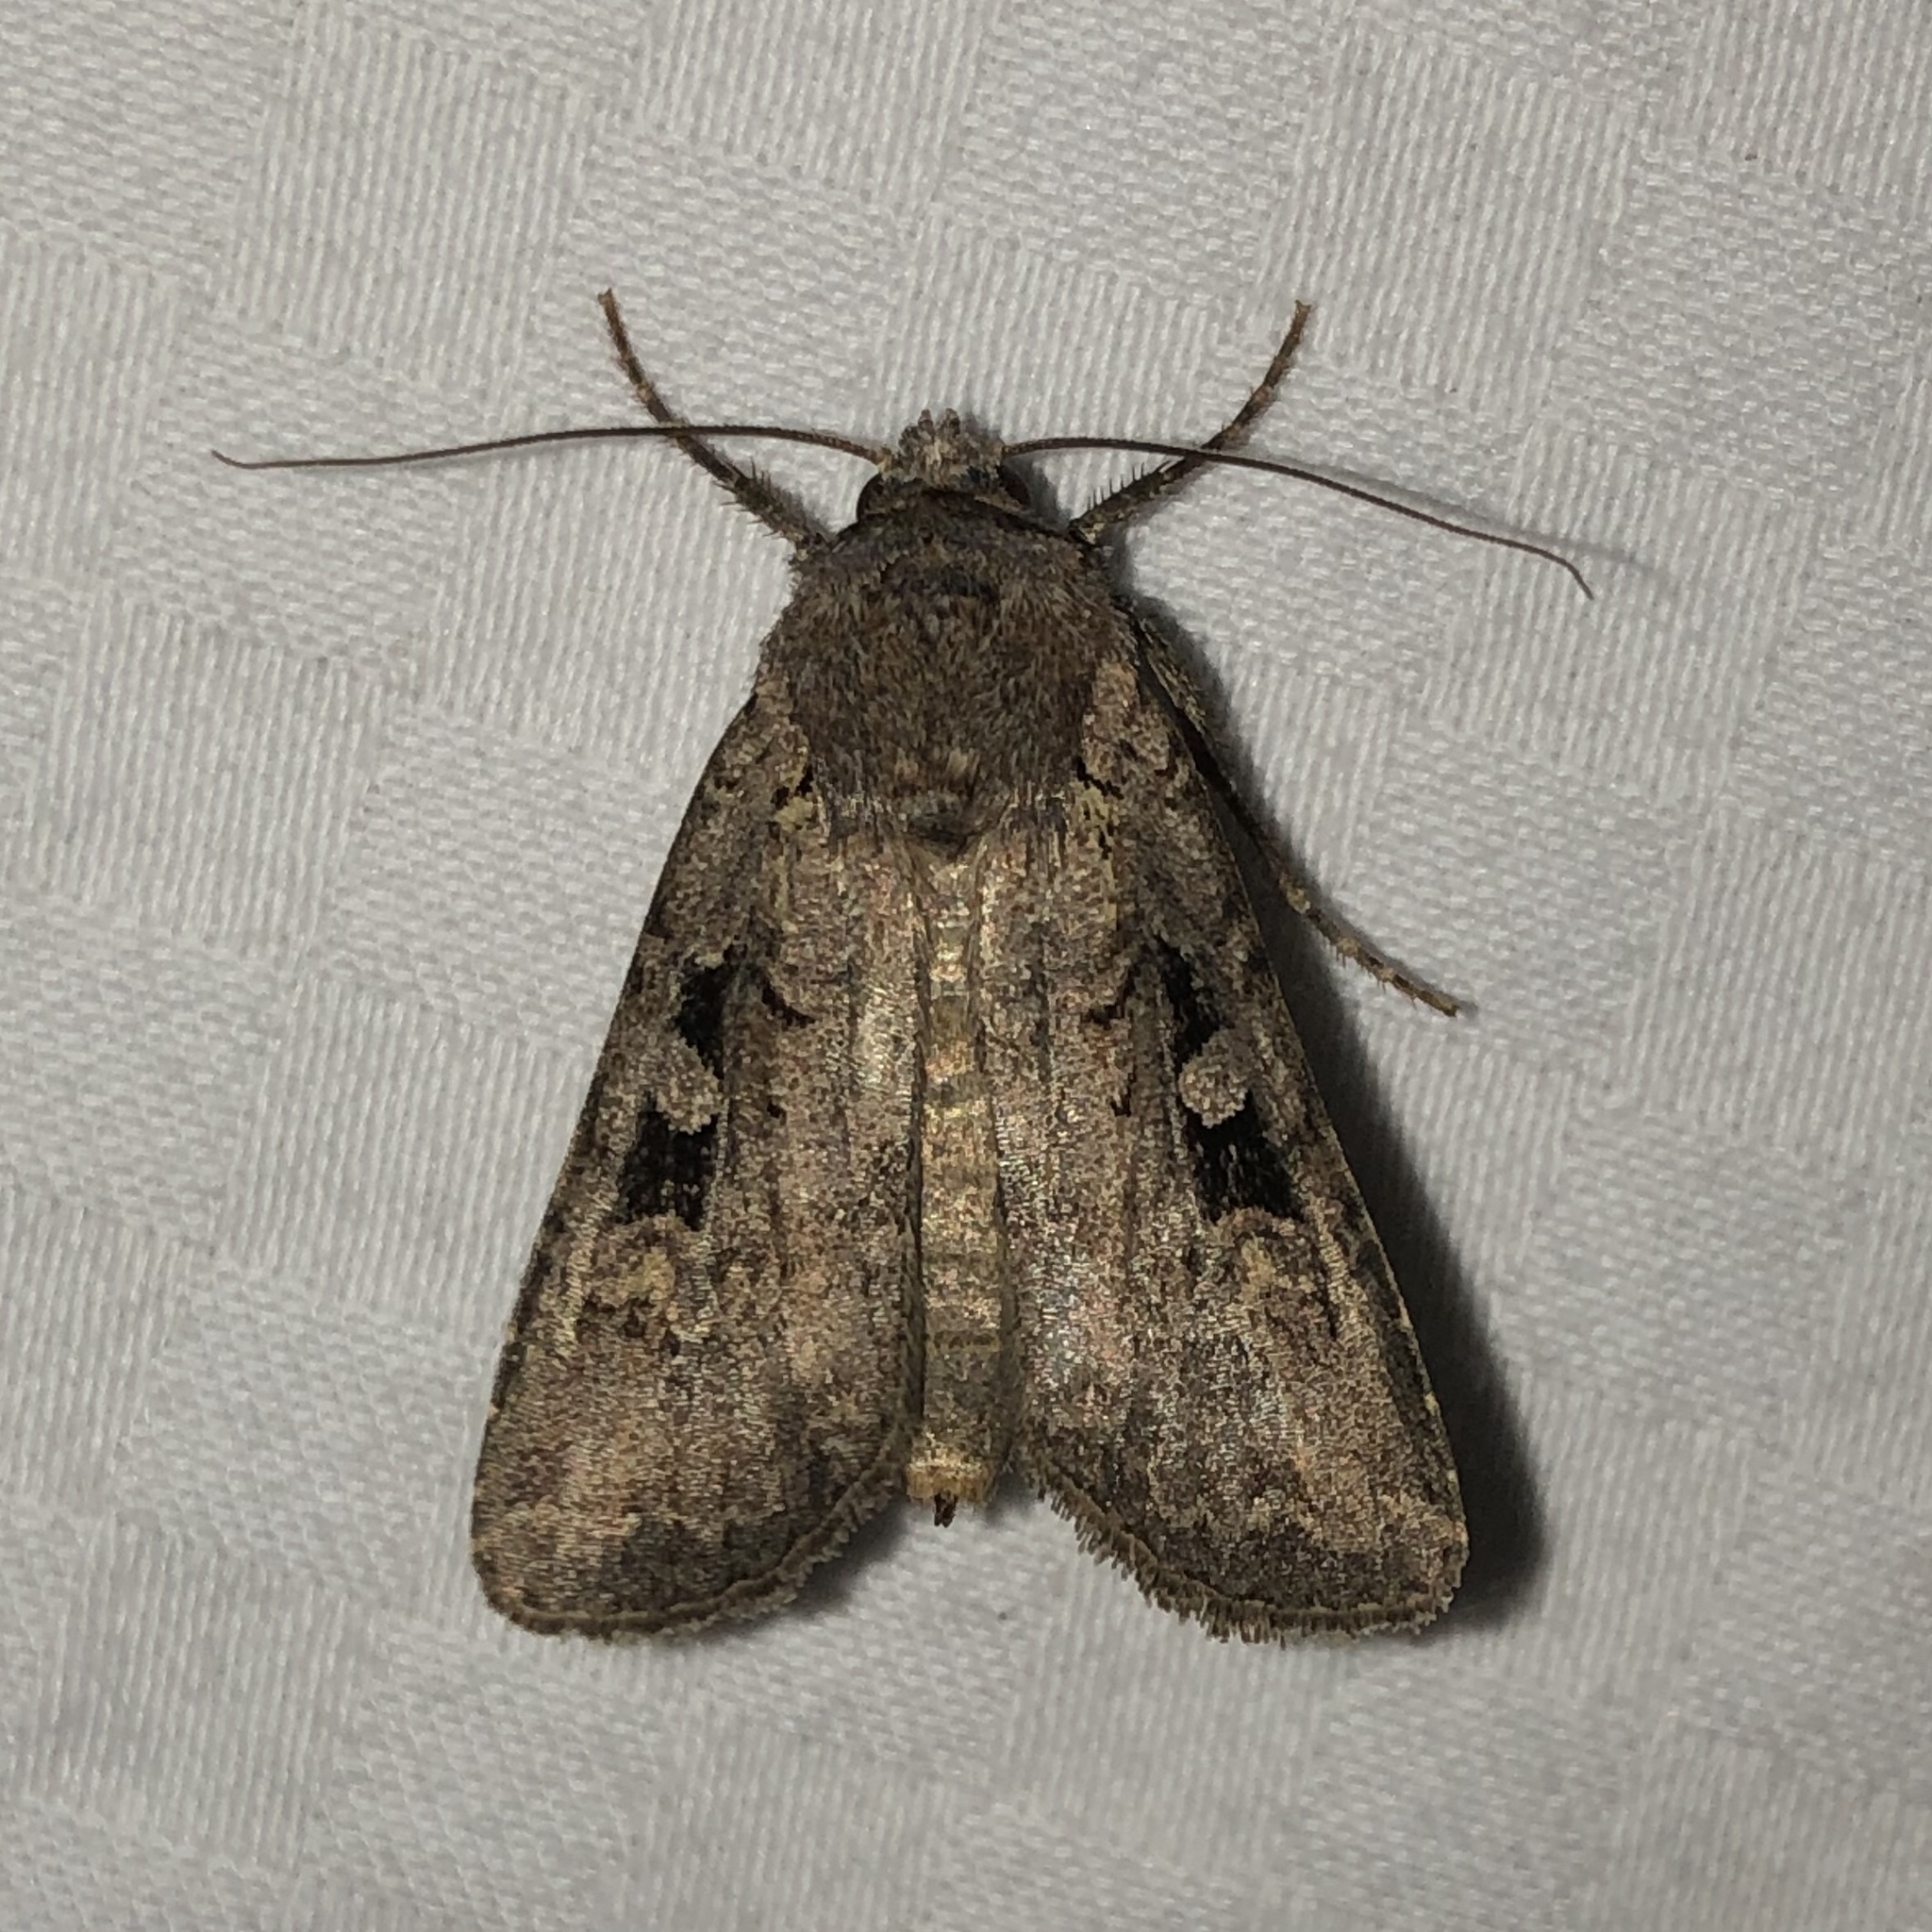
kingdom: Animalia
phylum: Arthropoda
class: Insecta
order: Lepidoptera
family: Noctuidae
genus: Euxoa
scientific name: Euxoa tessellata
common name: Striped cutworm
